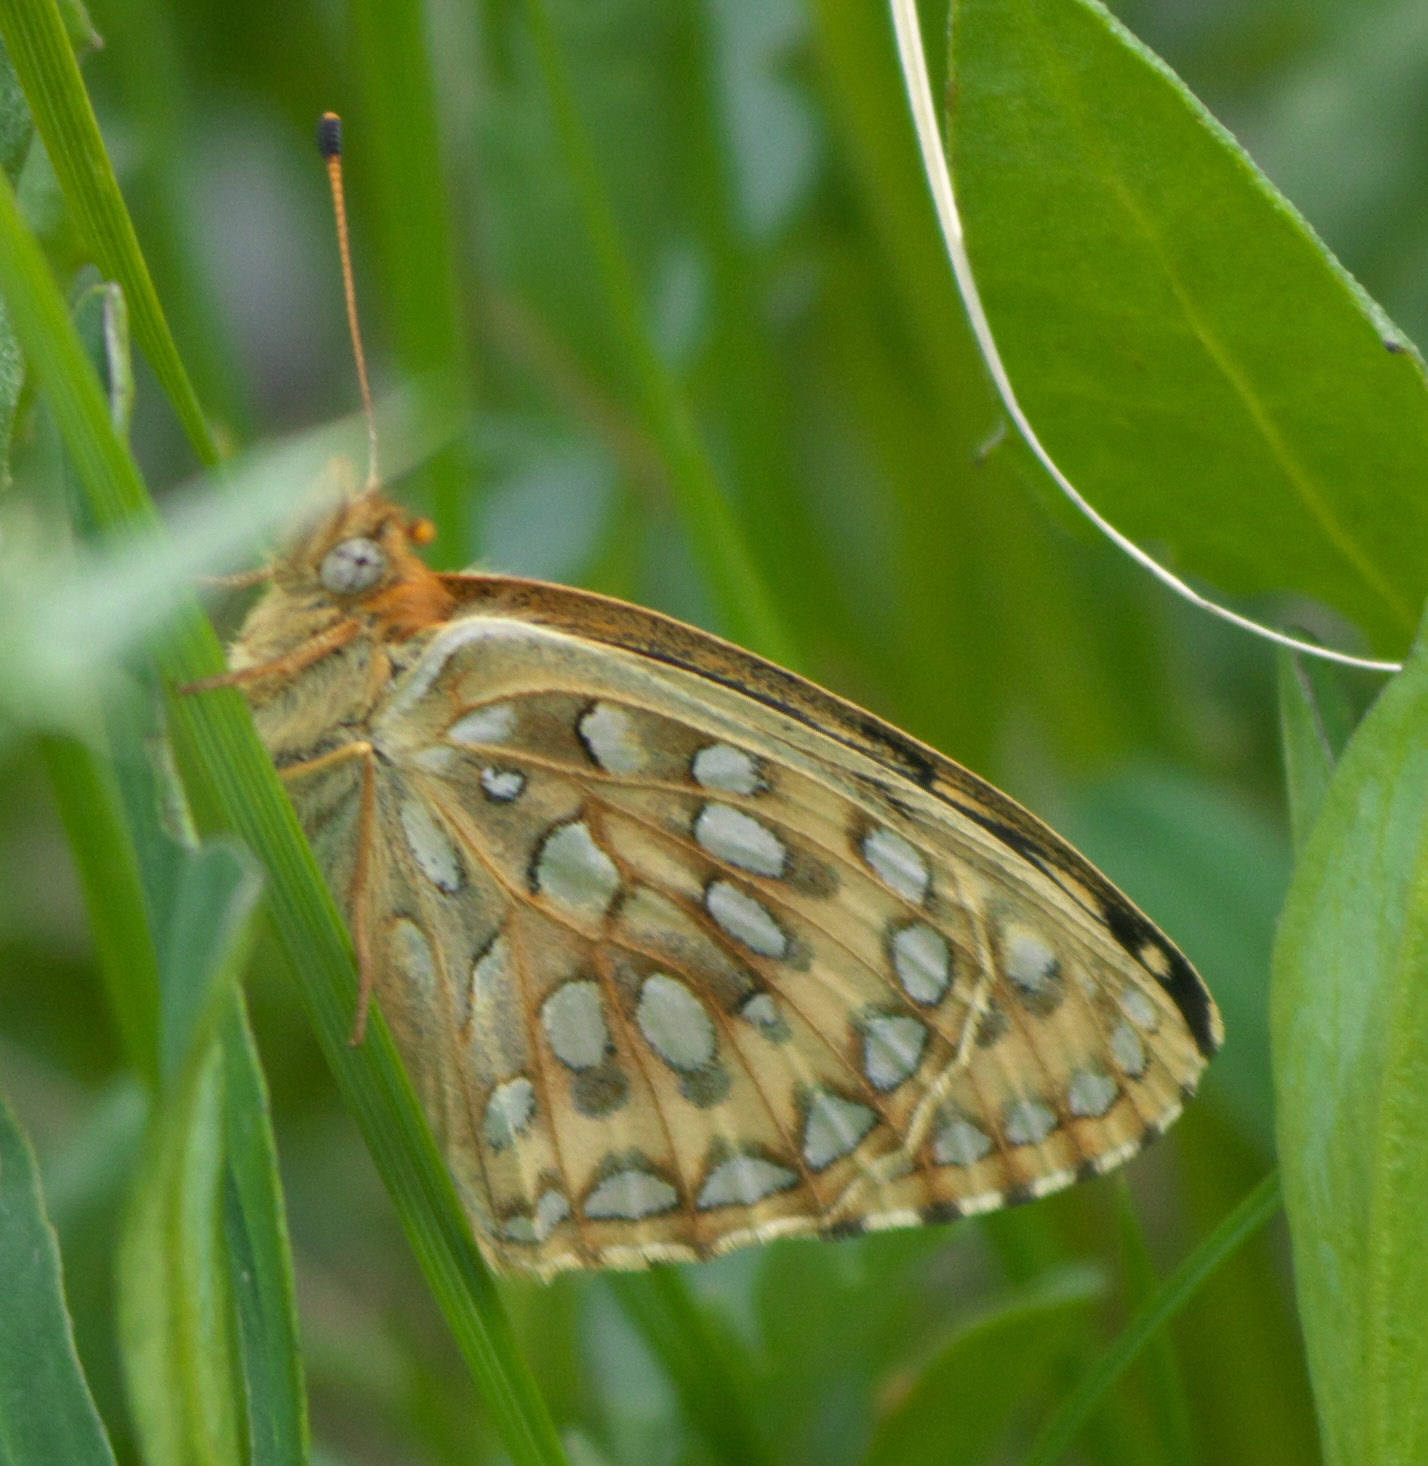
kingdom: Animalia
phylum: Arthropoda
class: Insecta
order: Lepidoptera
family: Nymphalidae
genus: Speyeria
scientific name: Speyeria mormonia
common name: Mormon fritillary
